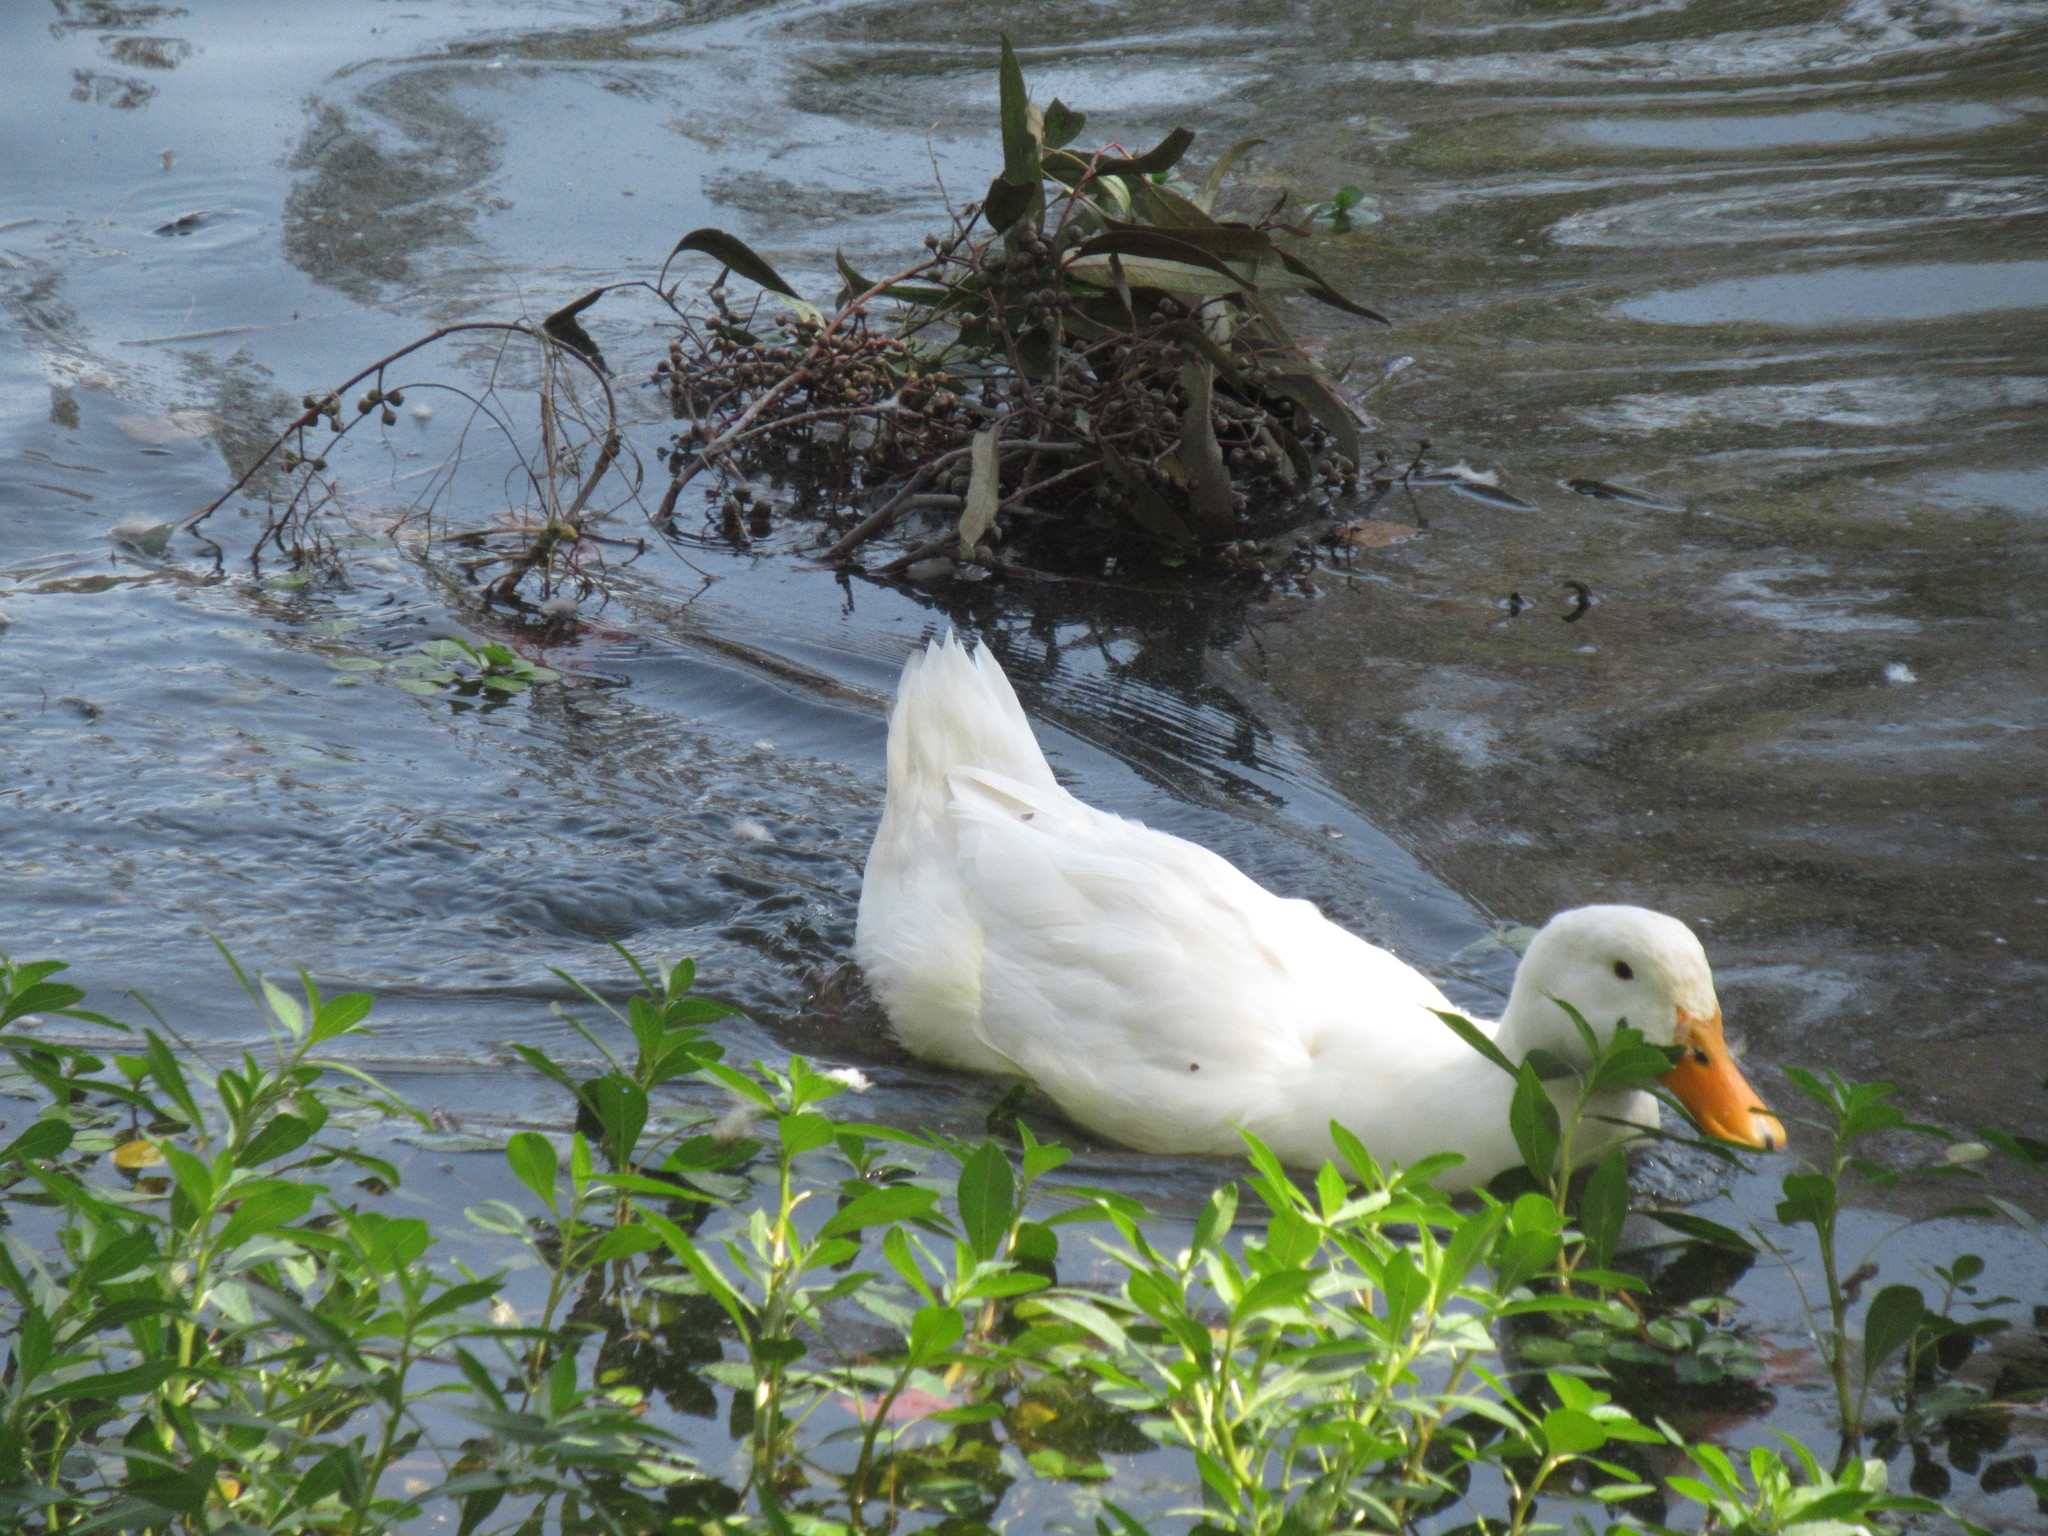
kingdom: Animalia
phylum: Chordata
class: Aves
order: Anseriformes
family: Anatidae
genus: Anas
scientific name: Anas platyrhynchos
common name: Mallard
